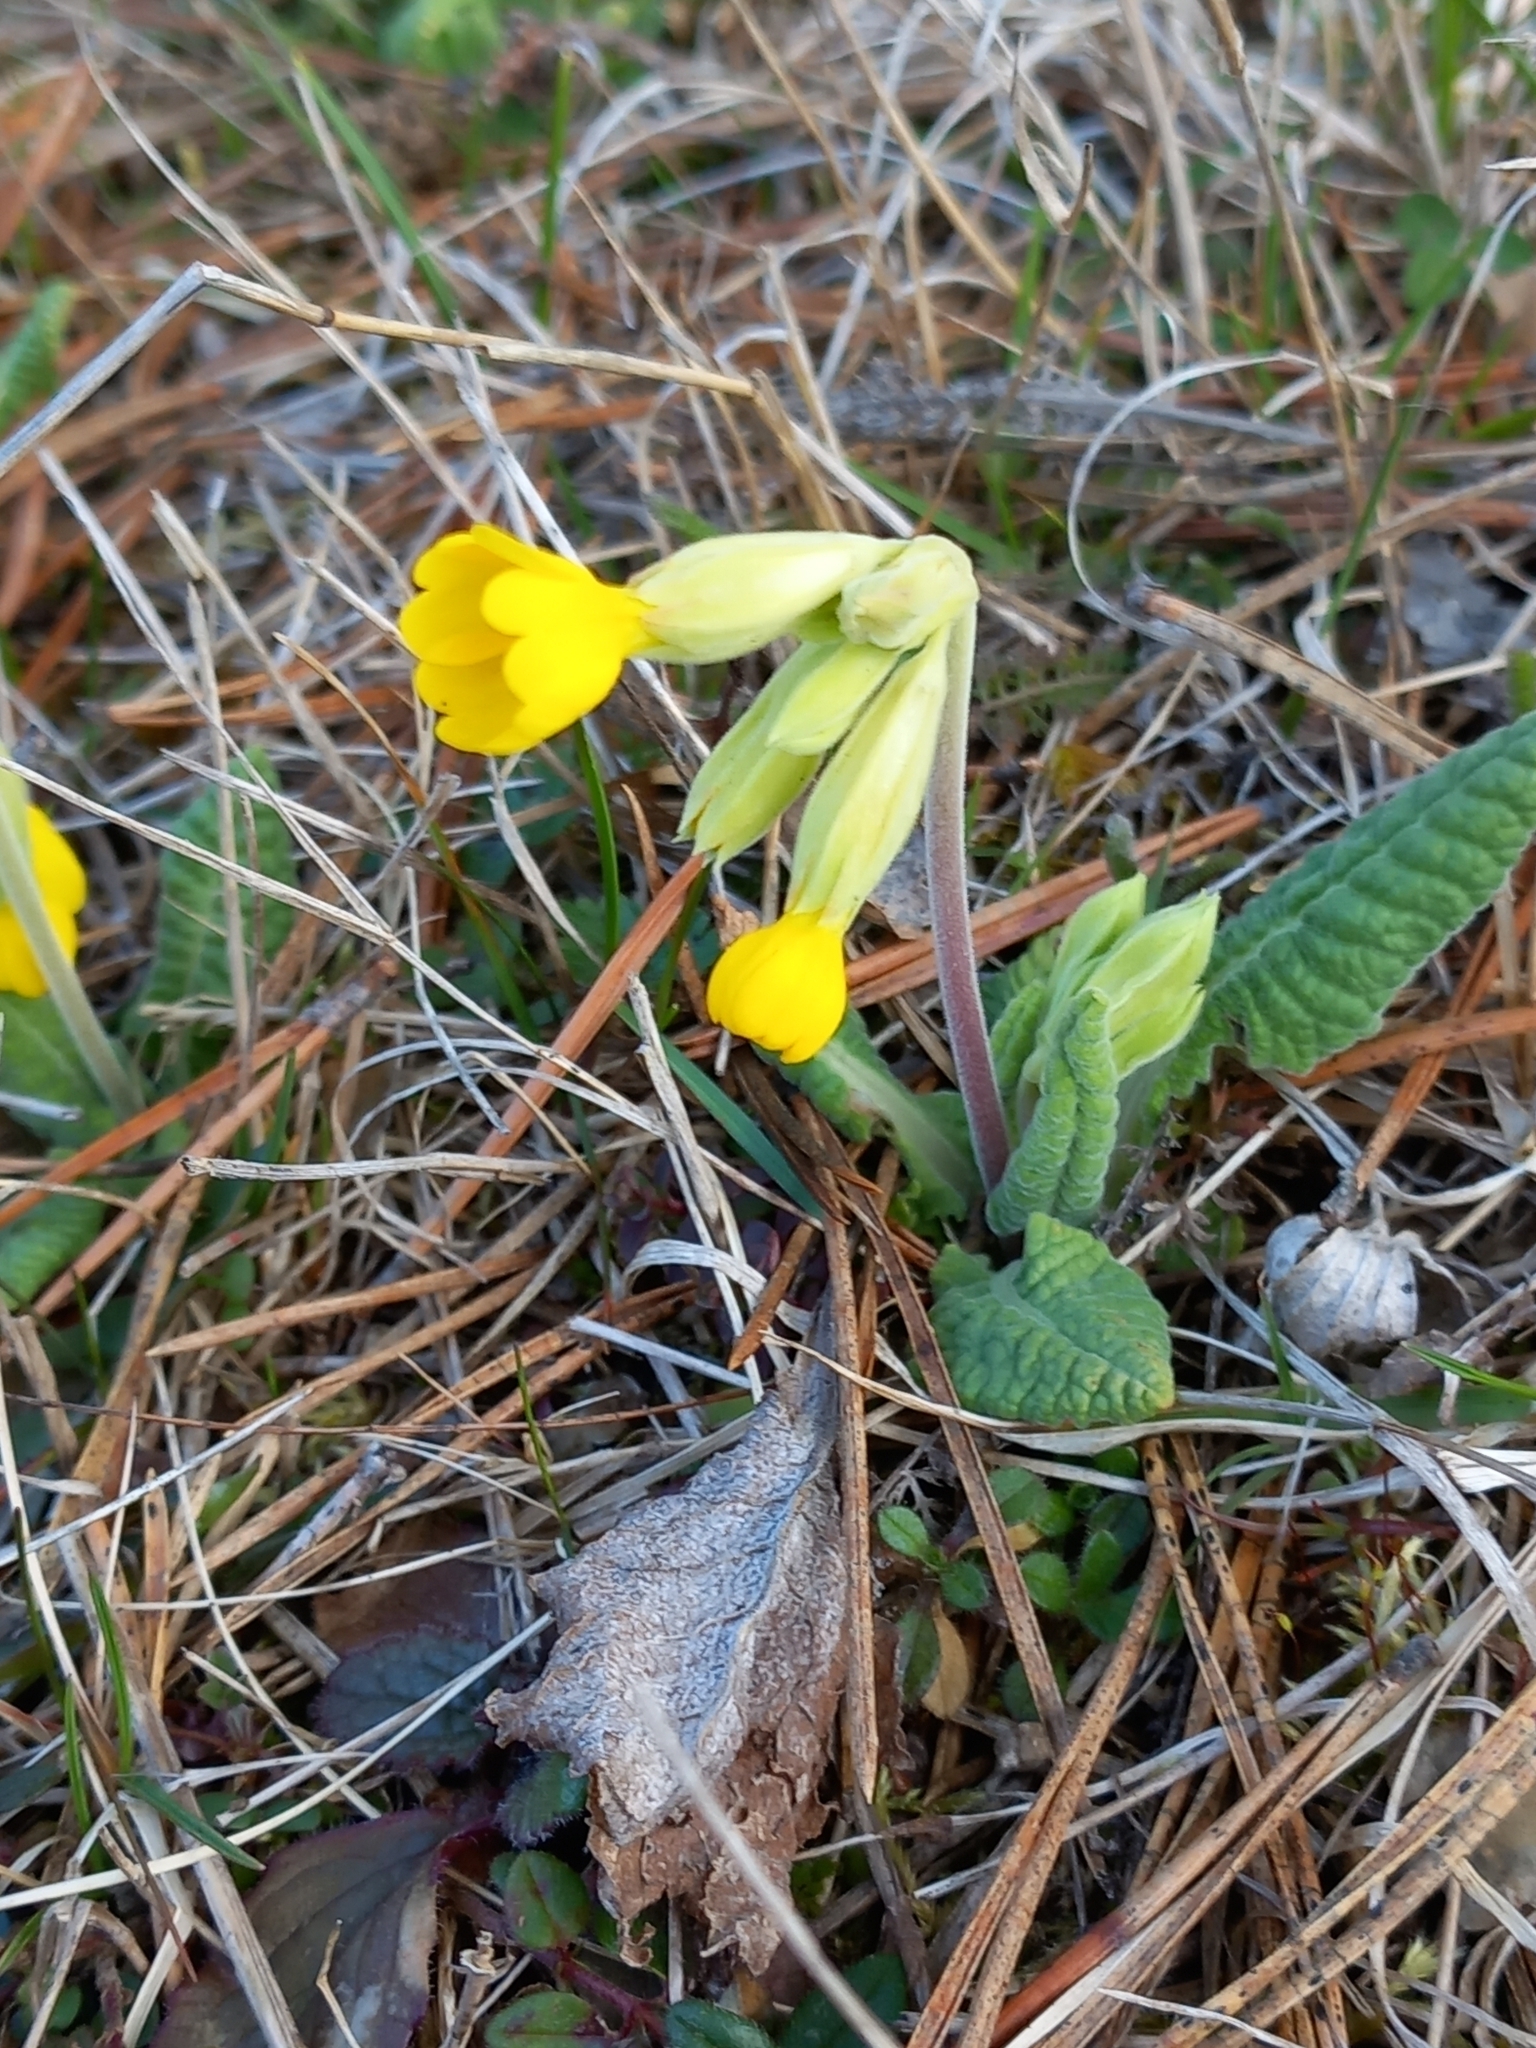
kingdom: Plantae
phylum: Tracheophyta
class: Magnoliopsida
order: Ericales
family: Primulaceae
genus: Primula
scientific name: Primula veris
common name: Cowslip
